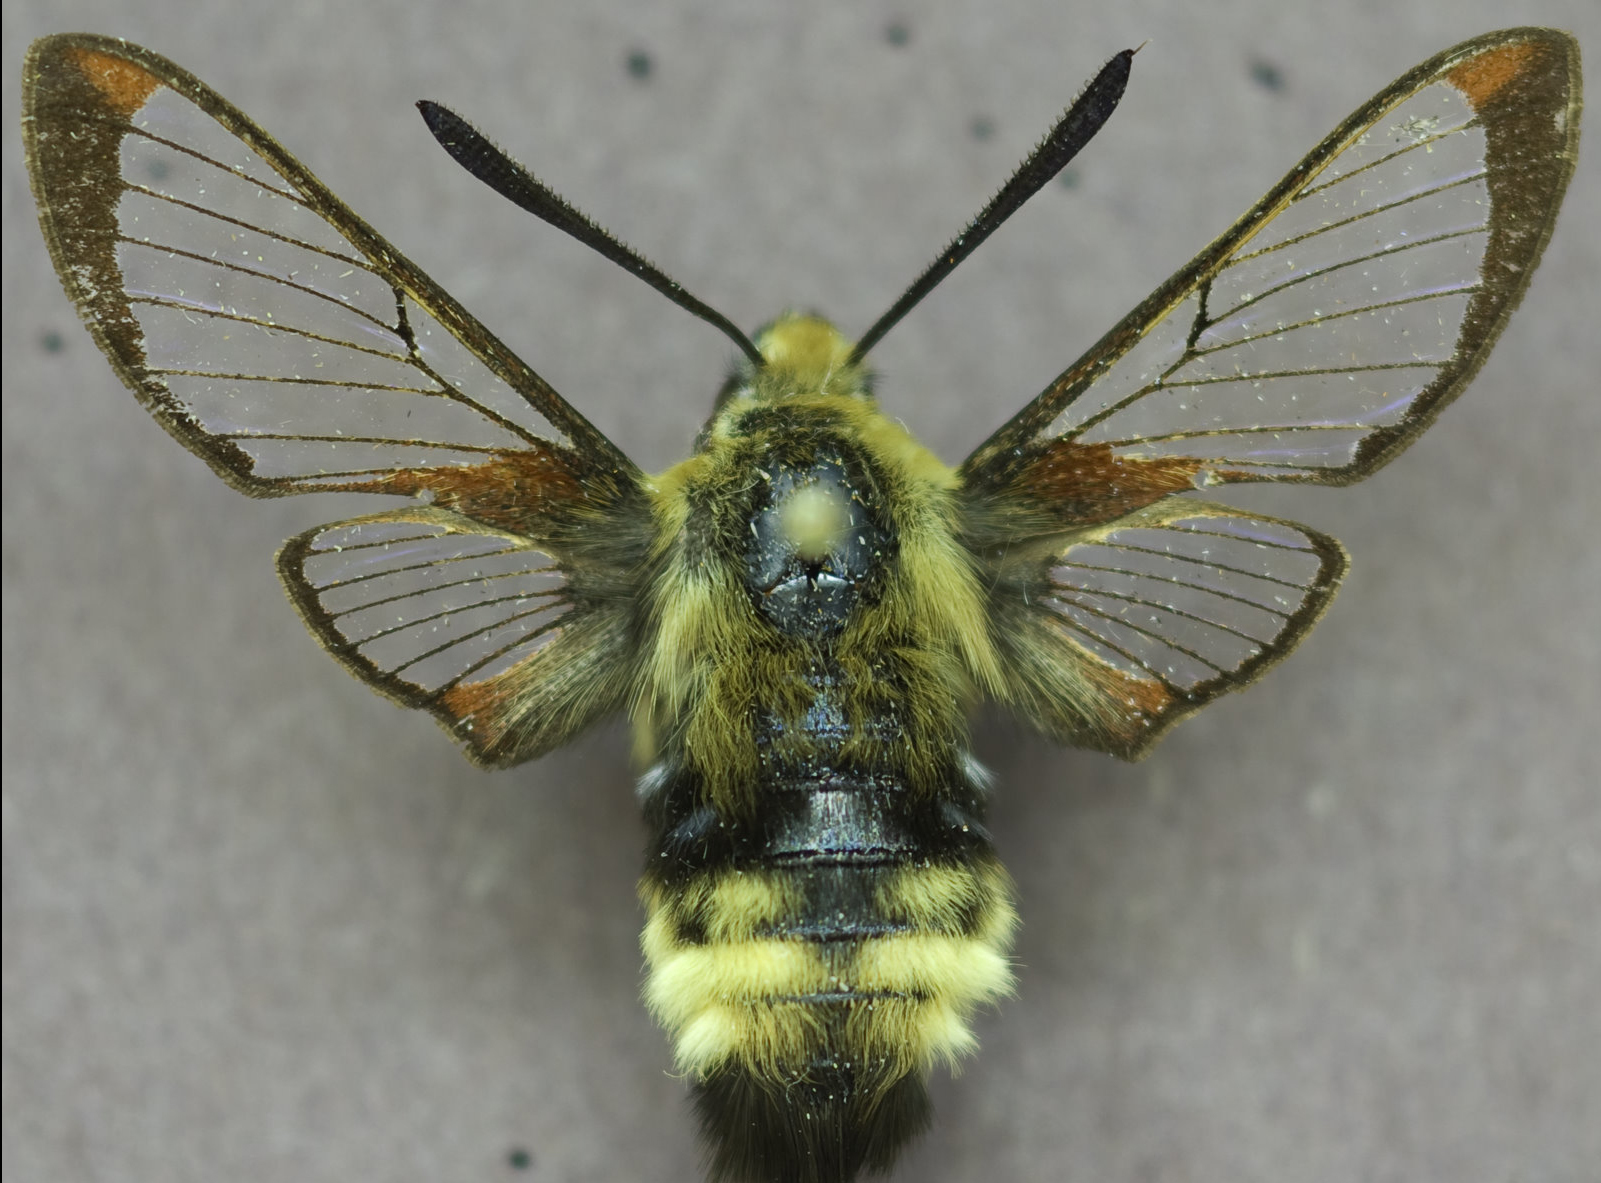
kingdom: Animalia
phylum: Arthropoda
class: Insecta
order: Lepidoptera
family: Sphingidae
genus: Hemaris
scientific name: Hemaris thetis
